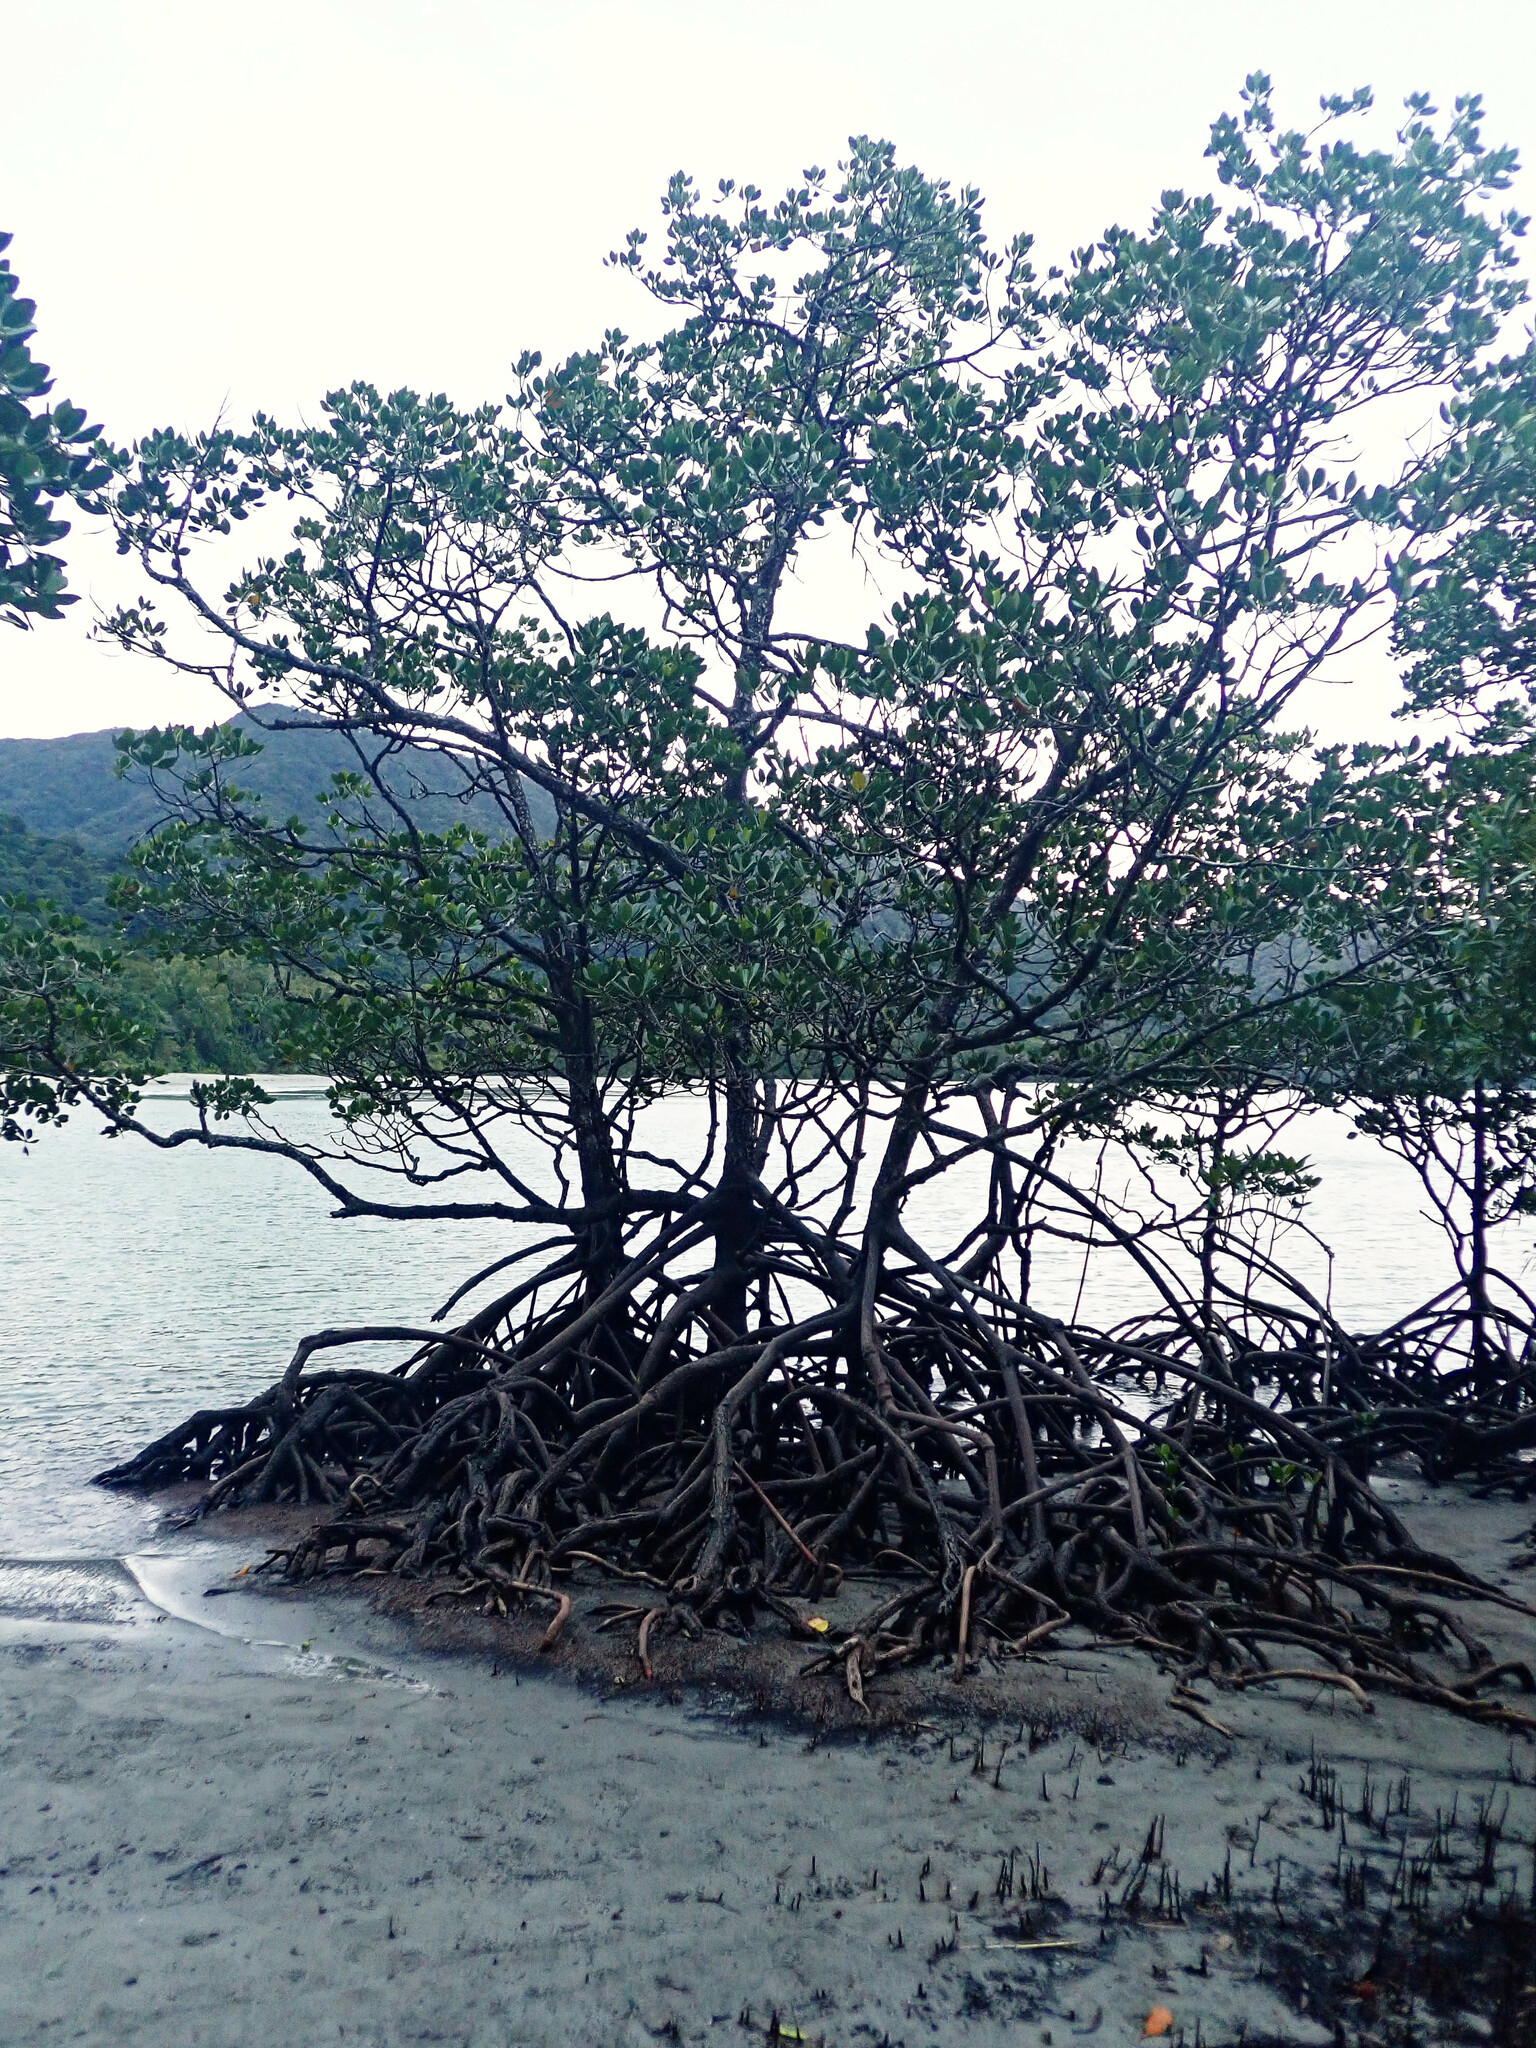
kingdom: Plantae
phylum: Tracheophyta
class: Magnoliopsida
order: Malpighiales
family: Rhizophoraceae
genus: Rhizophora
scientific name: Rhizophora stylosa
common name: Red mangrove
